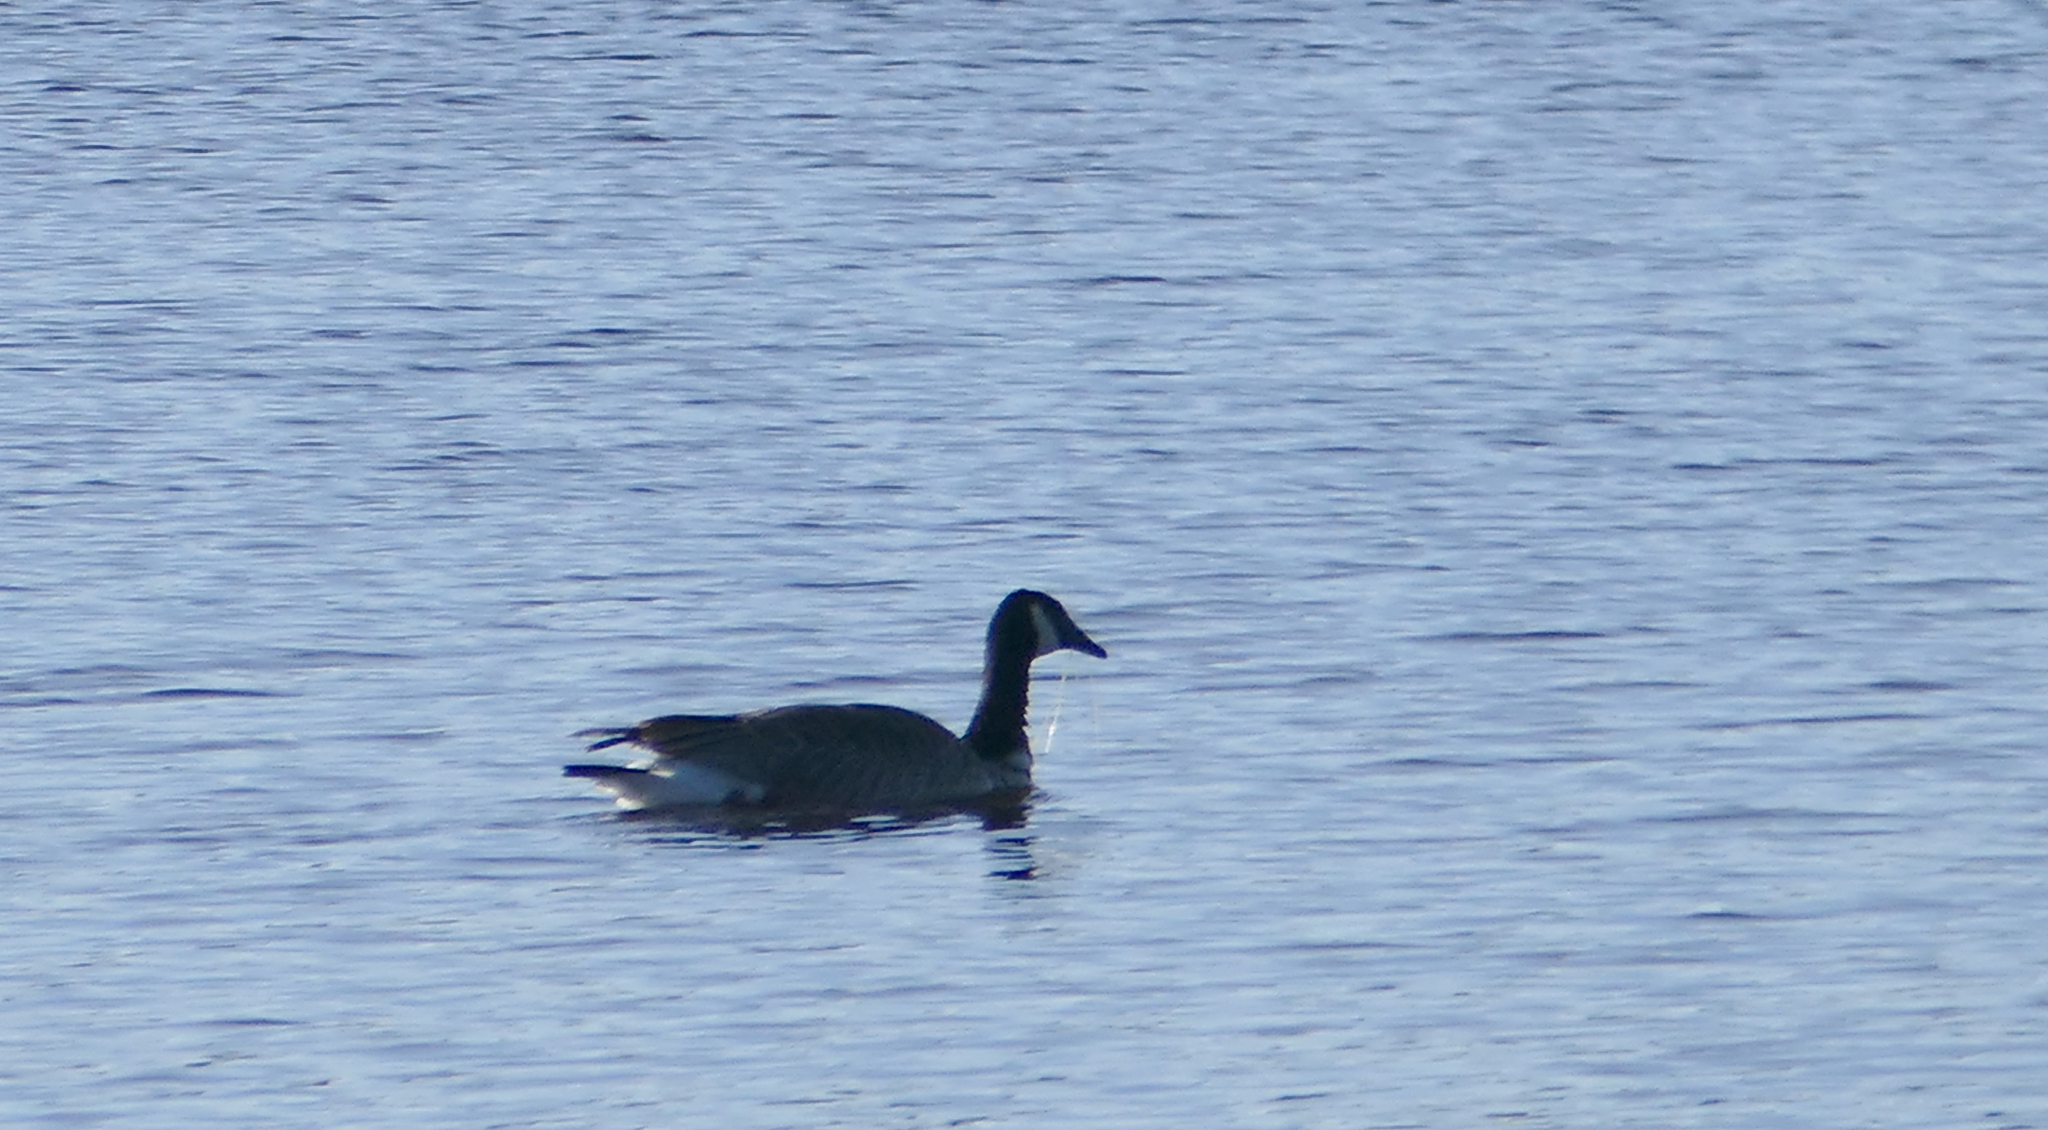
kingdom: Animalia
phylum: Chordata
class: Aves
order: Anseriformes
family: Anatidae
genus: Branta
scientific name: Branta canadensis
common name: Canada goose
